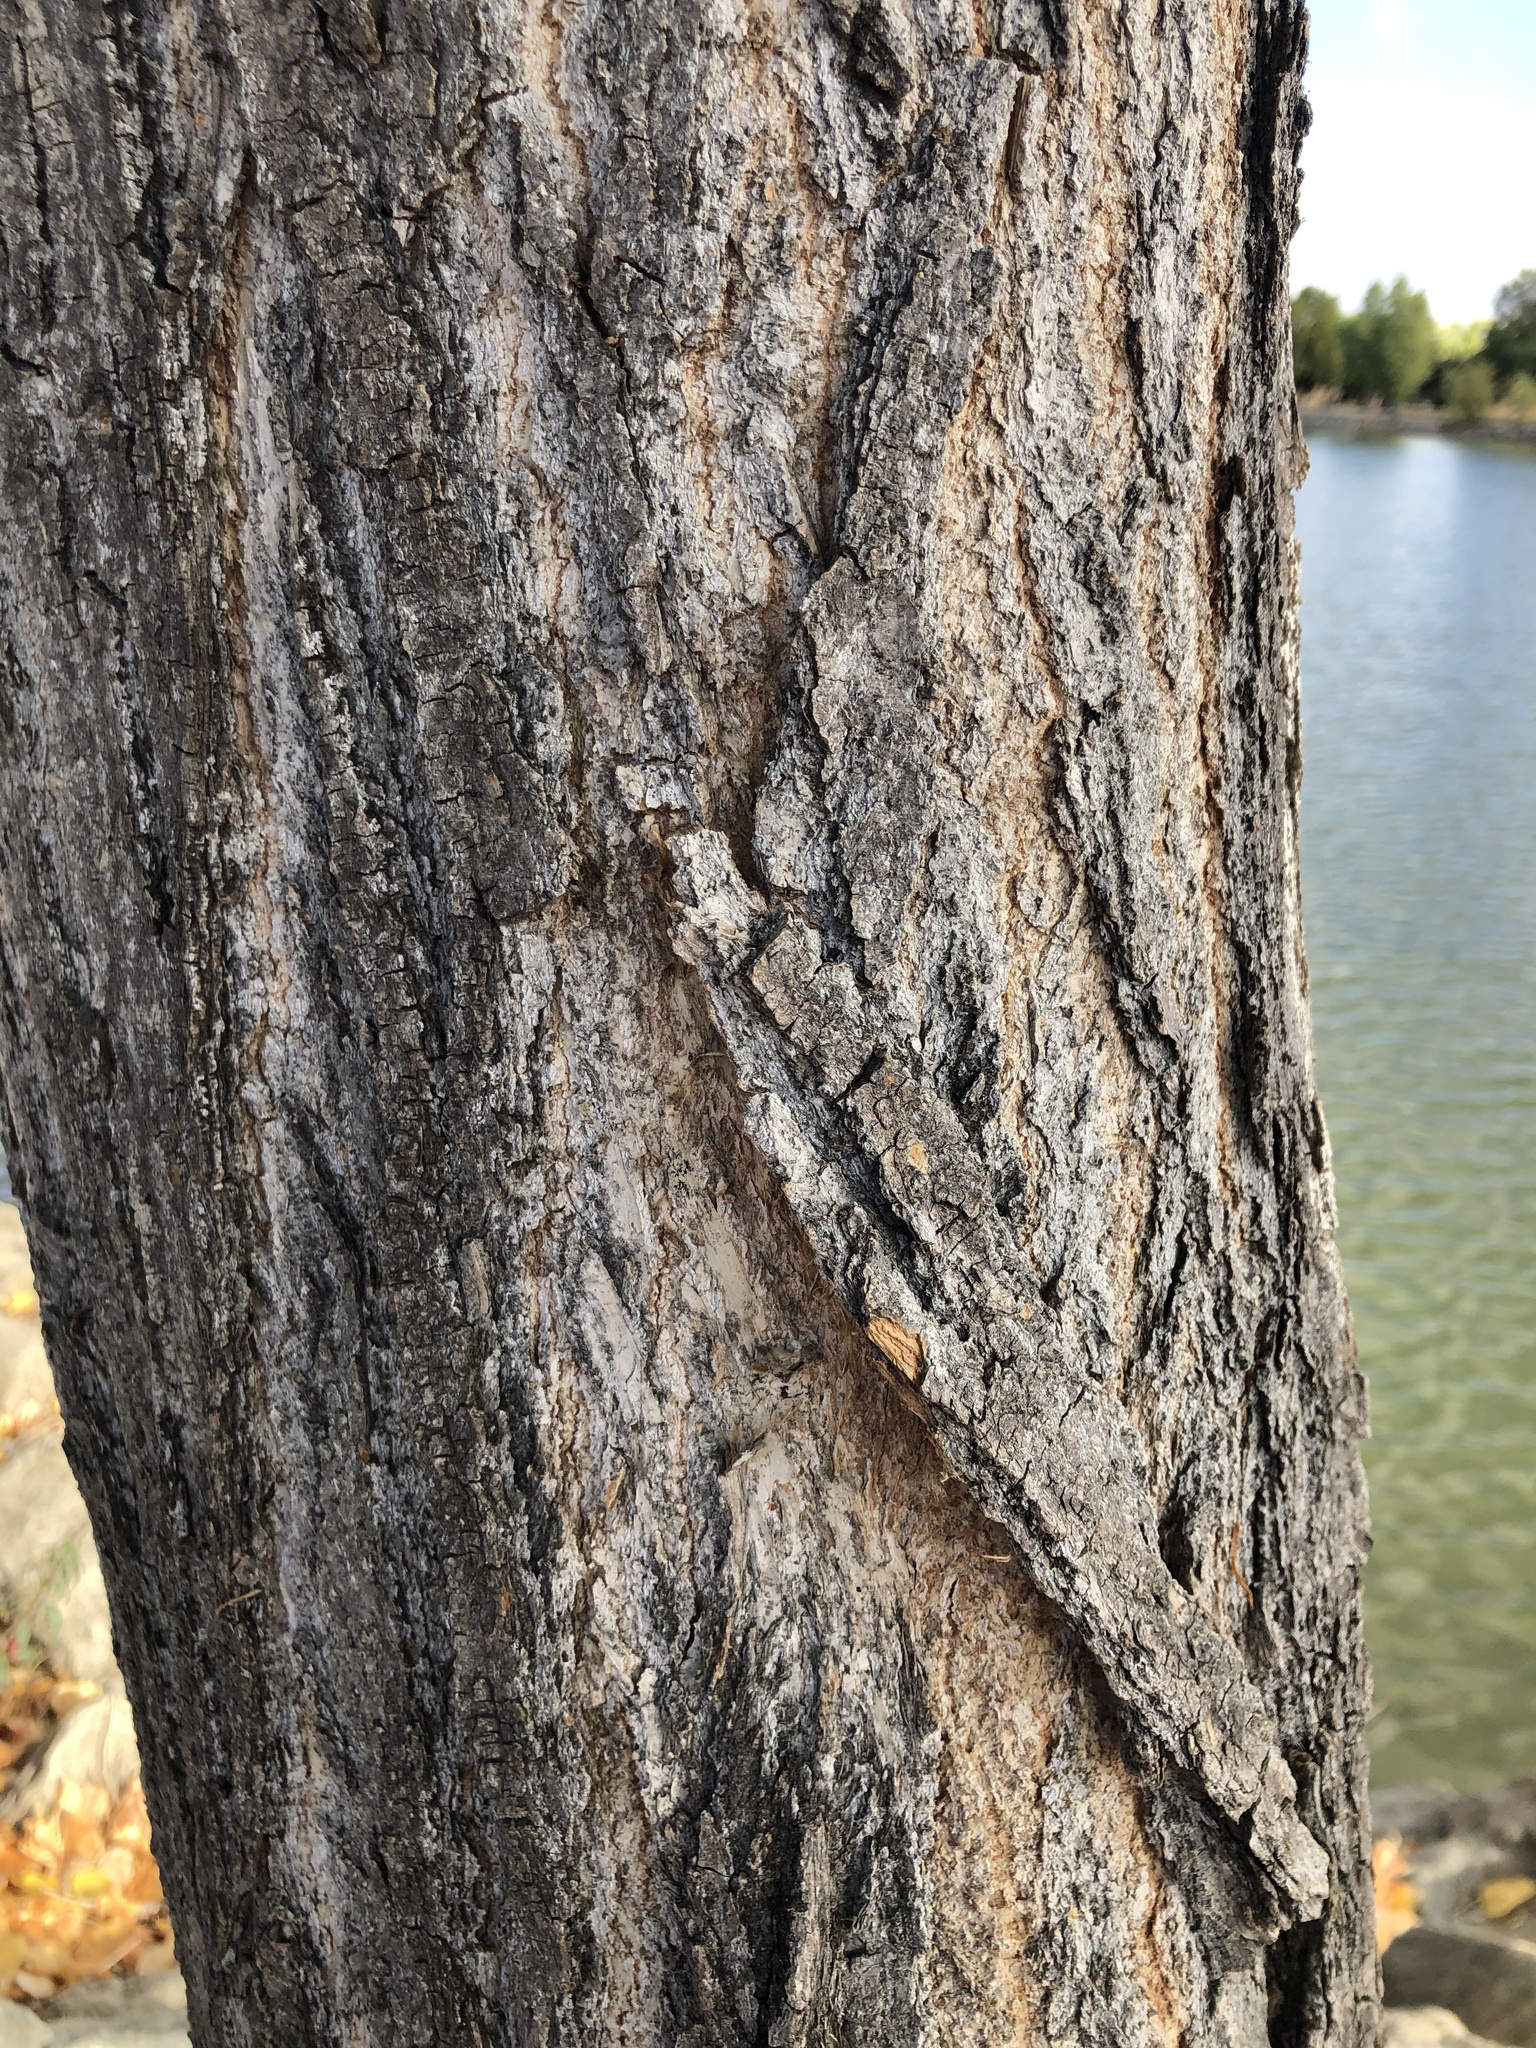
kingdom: Plantae
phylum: Tracheophyta
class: Magnoliopsida
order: Malpighiales
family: Salicaceae
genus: Populus
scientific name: Populus fremontii
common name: Fremont's cottonwood
